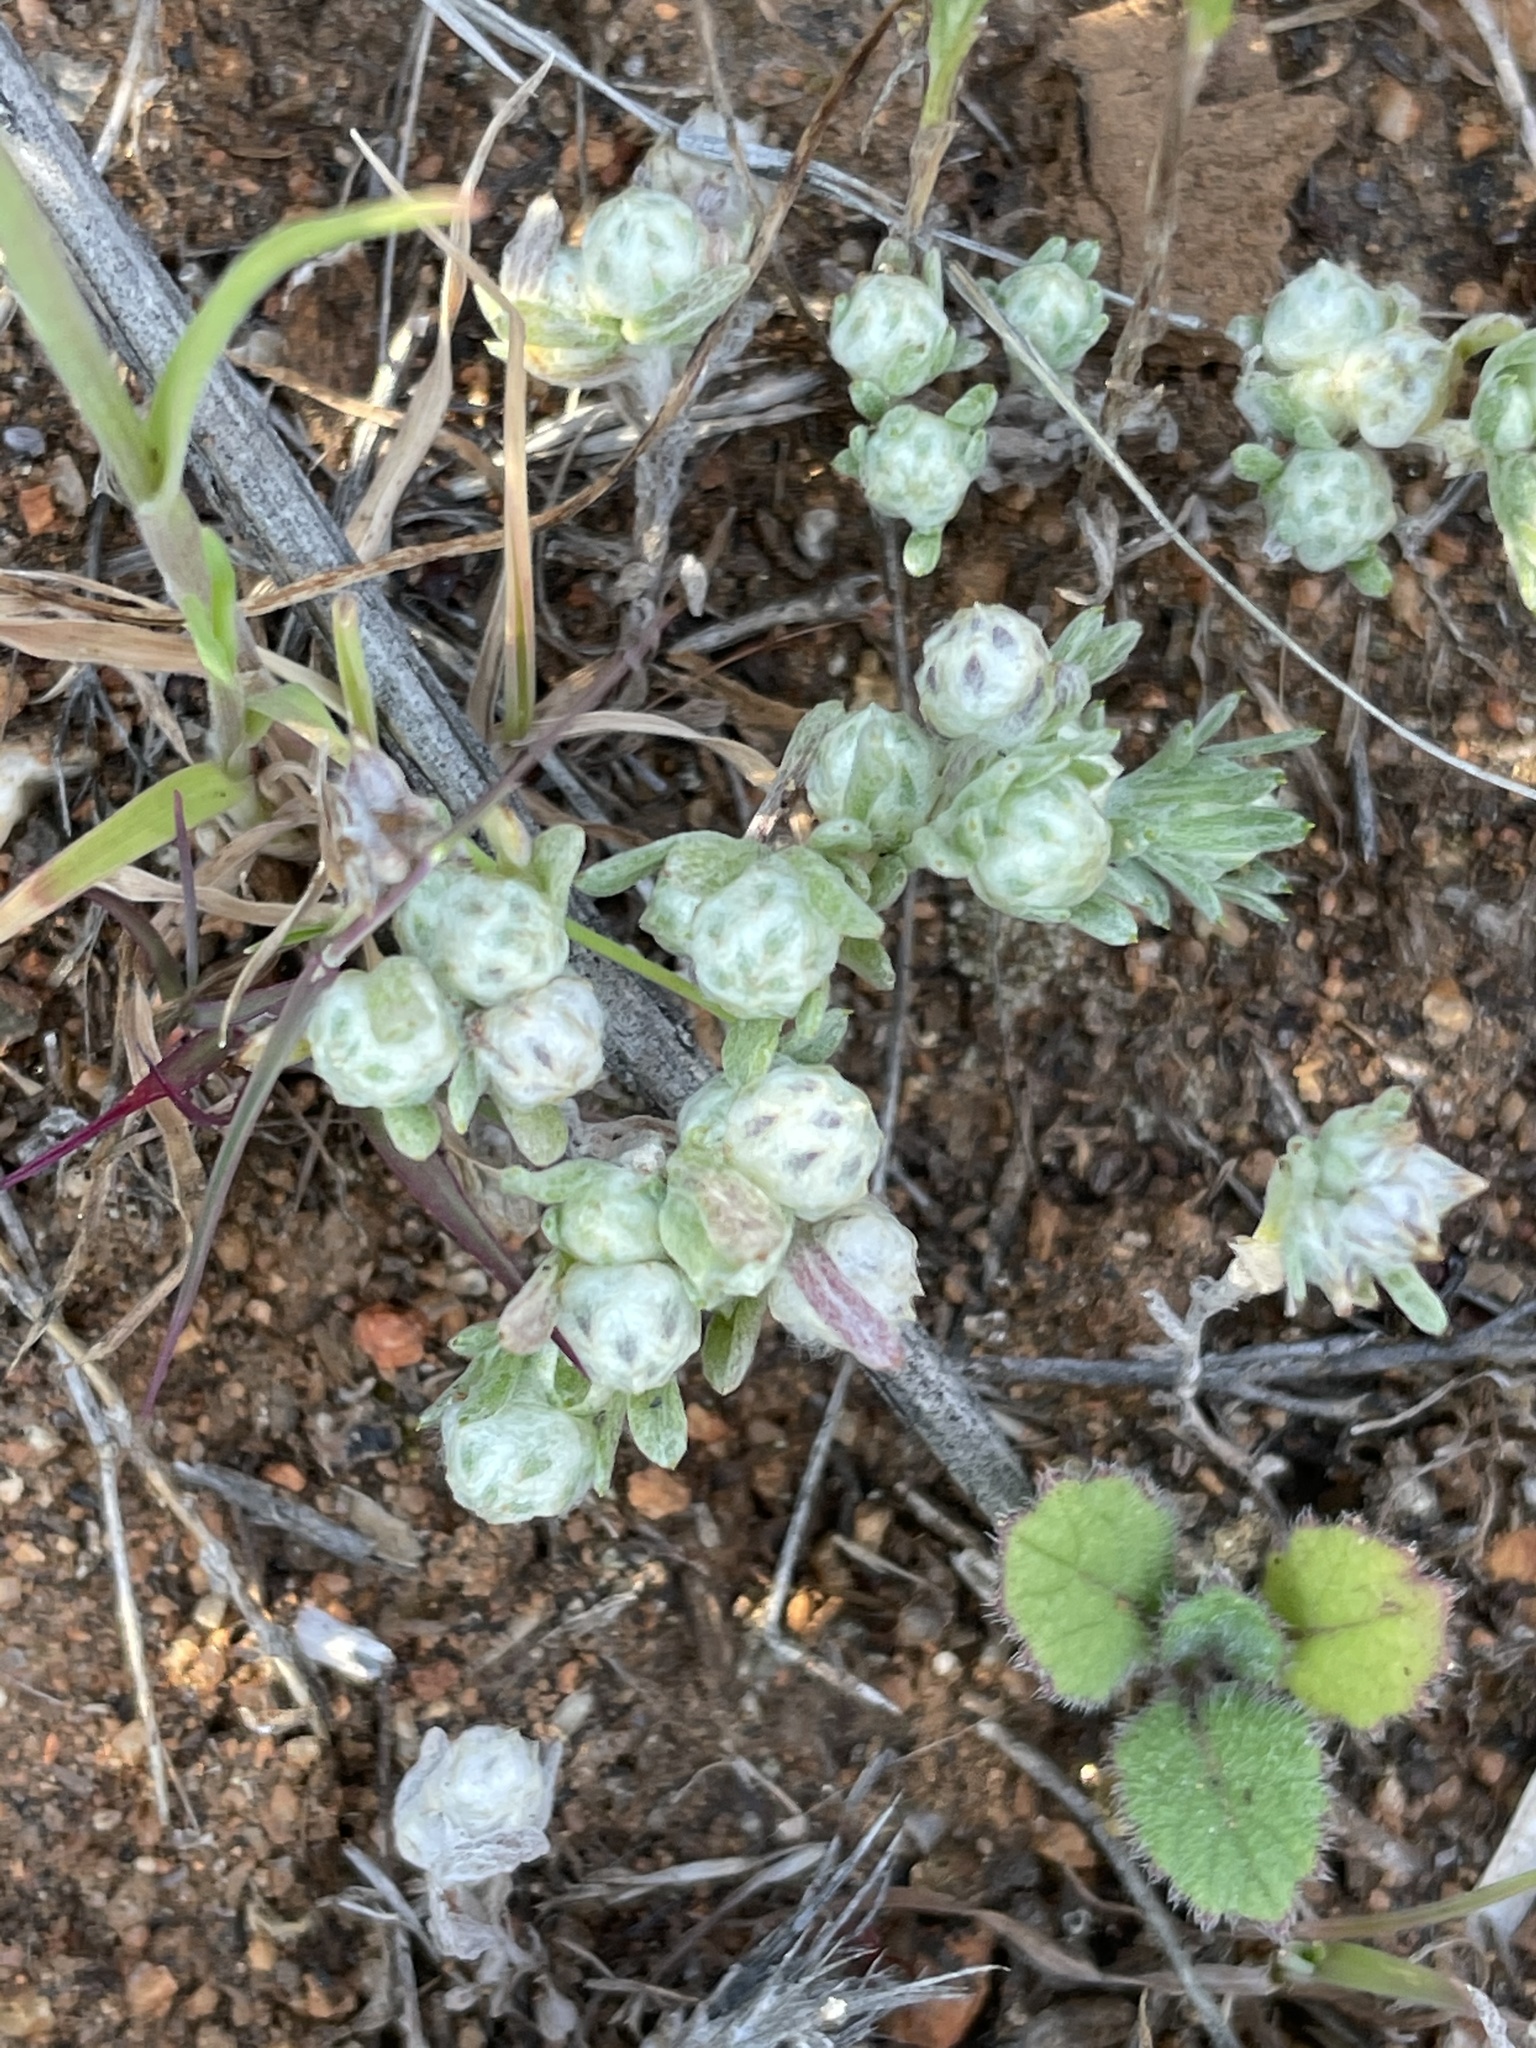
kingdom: Plantae
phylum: Tracheophyta
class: Magnoliopsida
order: Asterales
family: Asteraceae
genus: Stylocline
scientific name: Stylocline gnaphaloides
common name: Everlasting nest-straw
